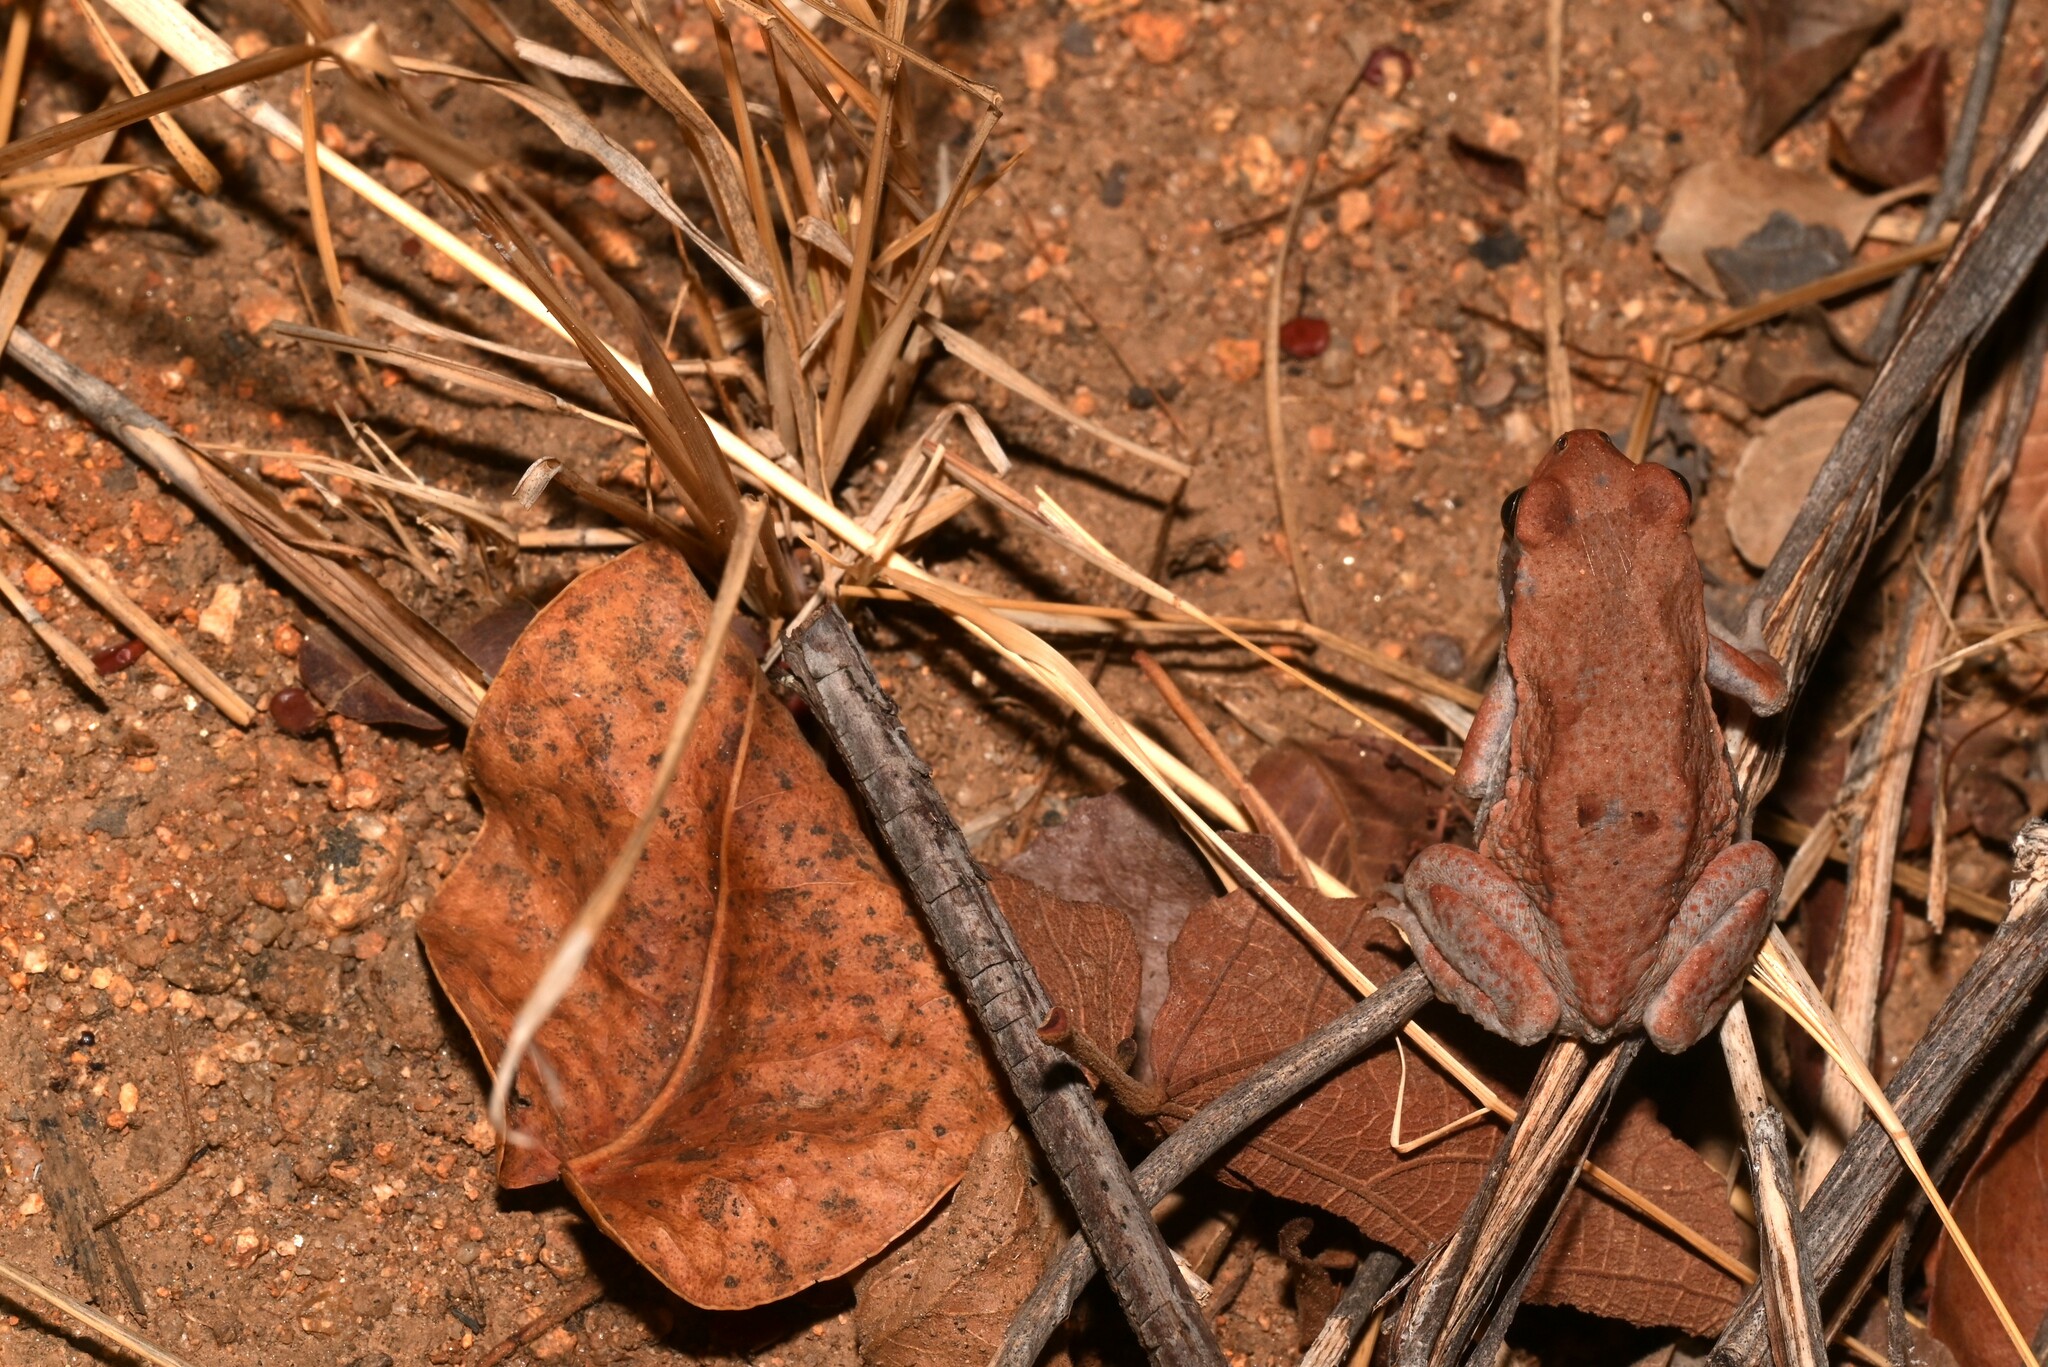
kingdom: Animalia
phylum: Chordata
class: Amphibia
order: Anura
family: Bufonidae
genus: Schismaderma
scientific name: Schismaderma carens
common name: African split-skin toad
